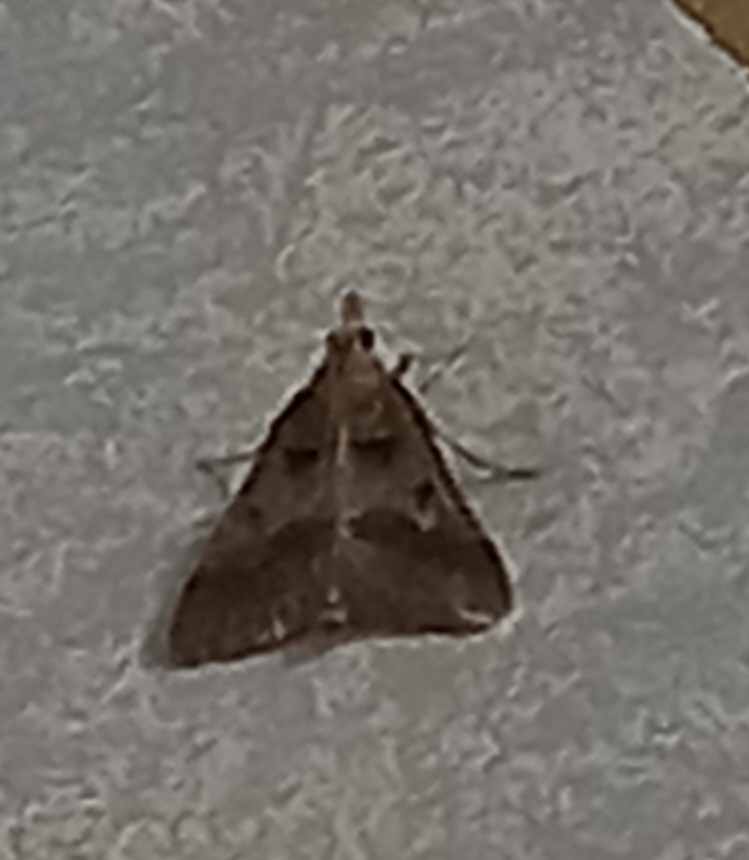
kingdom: Animalia
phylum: Arthropoda
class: Insecta
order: Lepidoptera
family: Pyralidae
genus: Stemmatophora
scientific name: Stemmatophora brunnealis
